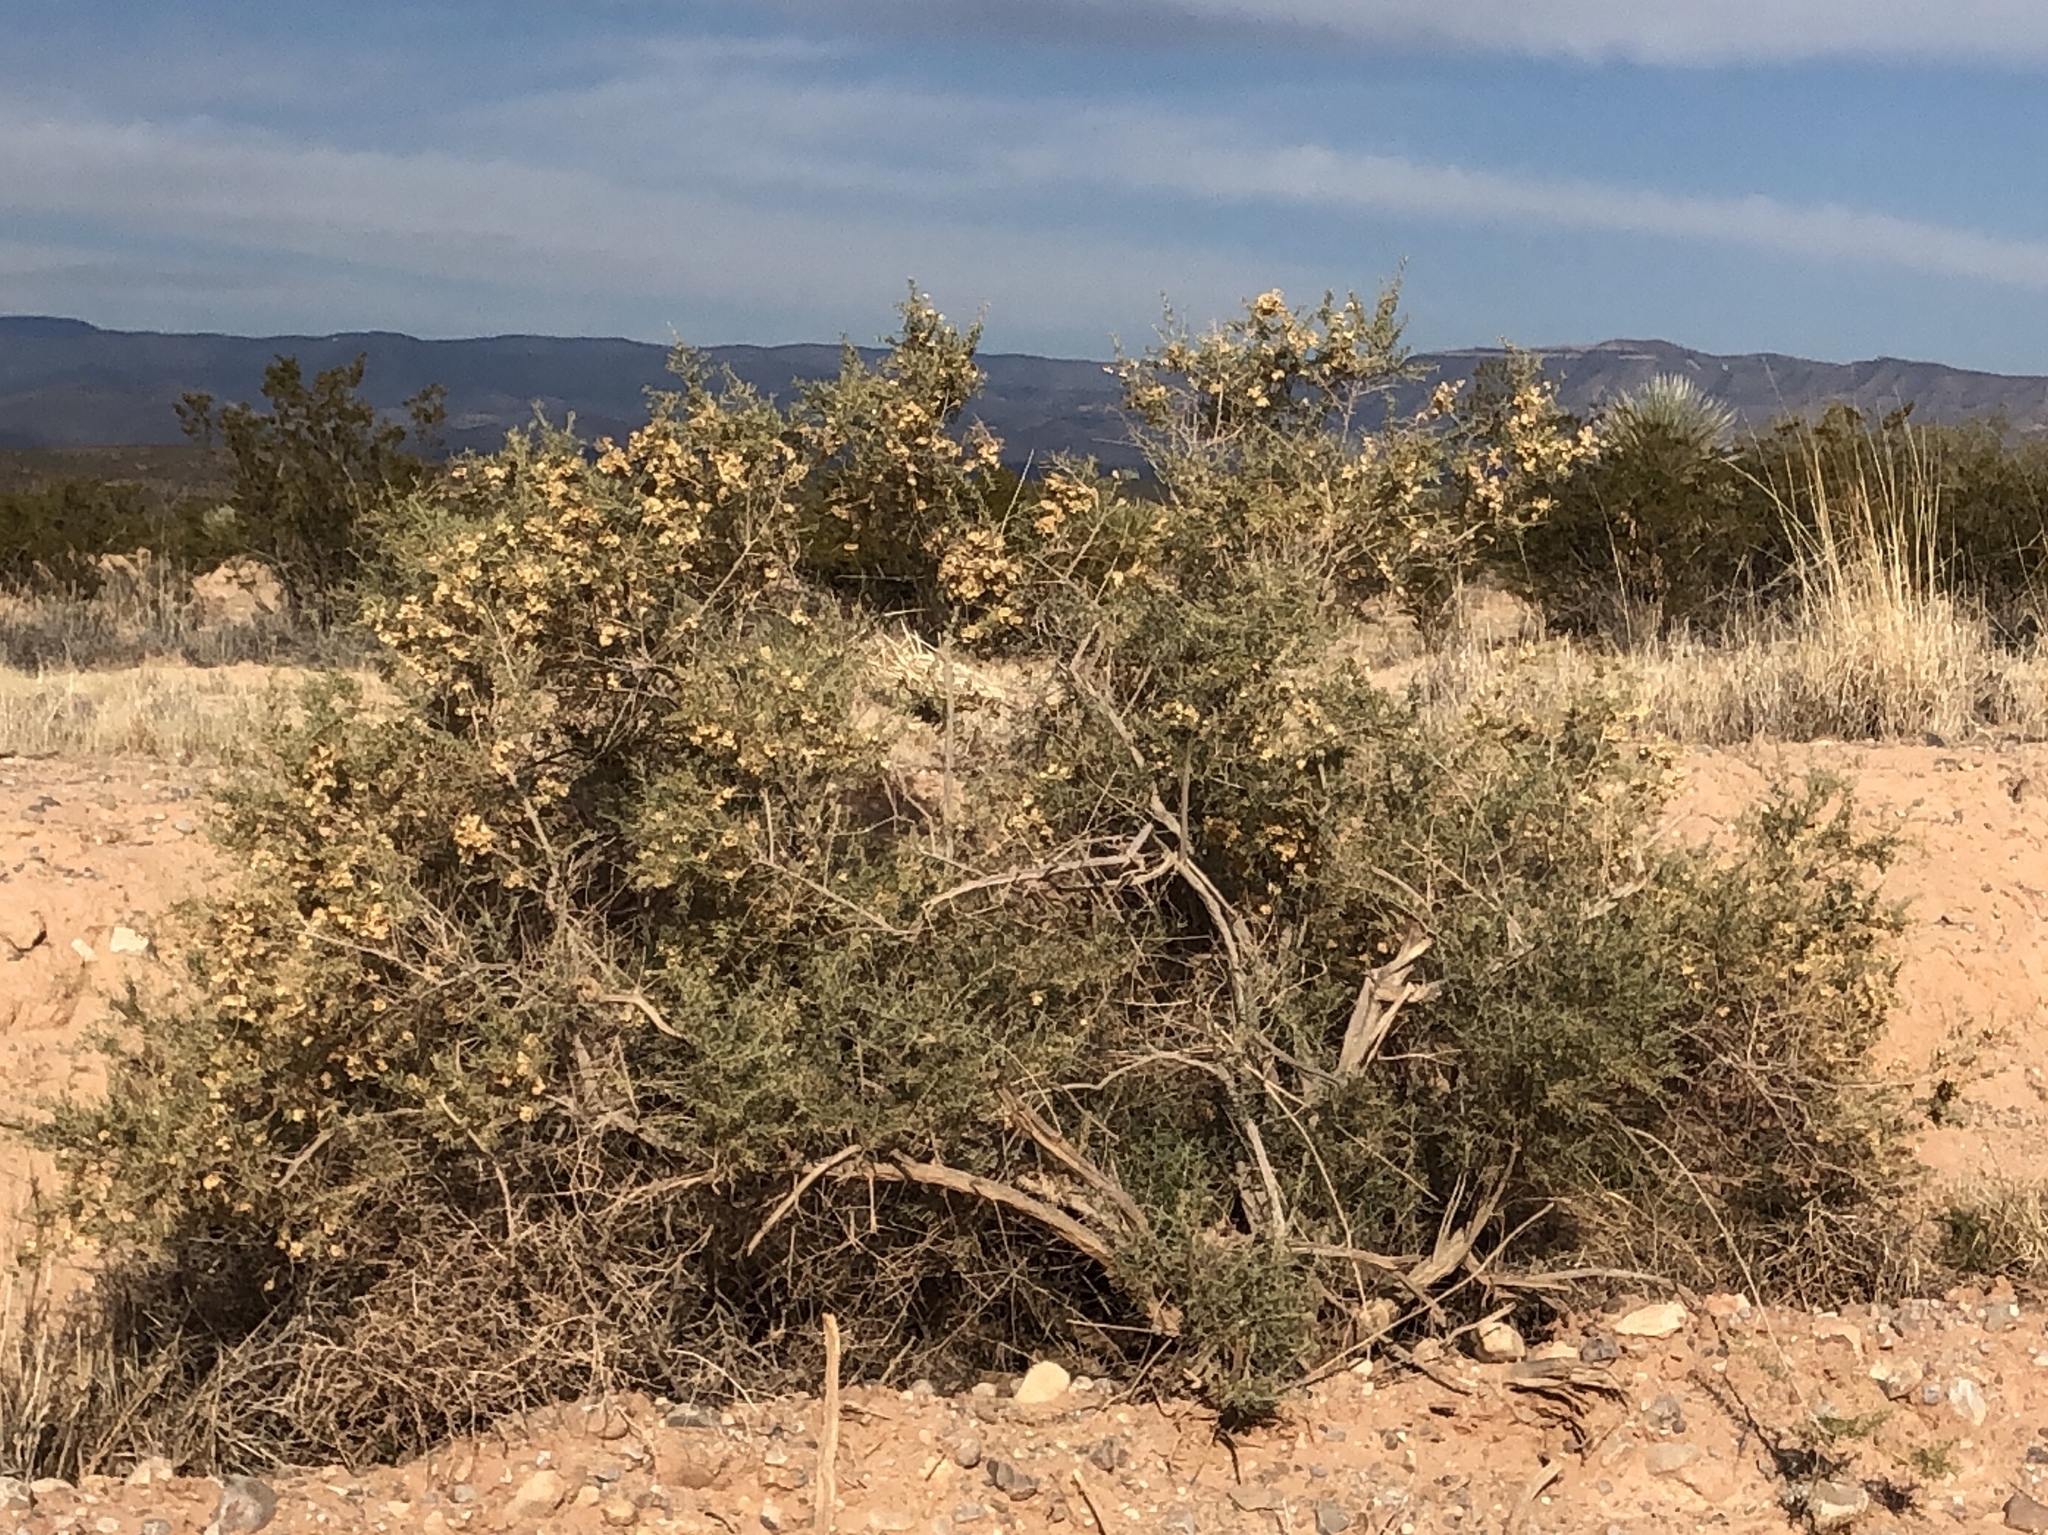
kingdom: Plantae
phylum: Tracheophyta
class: Magnoliopsida
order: Caryophyllales
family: Amaranthaceae
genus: Atriplex
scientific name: Atriplex canescens
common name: Four-wing saltbush
